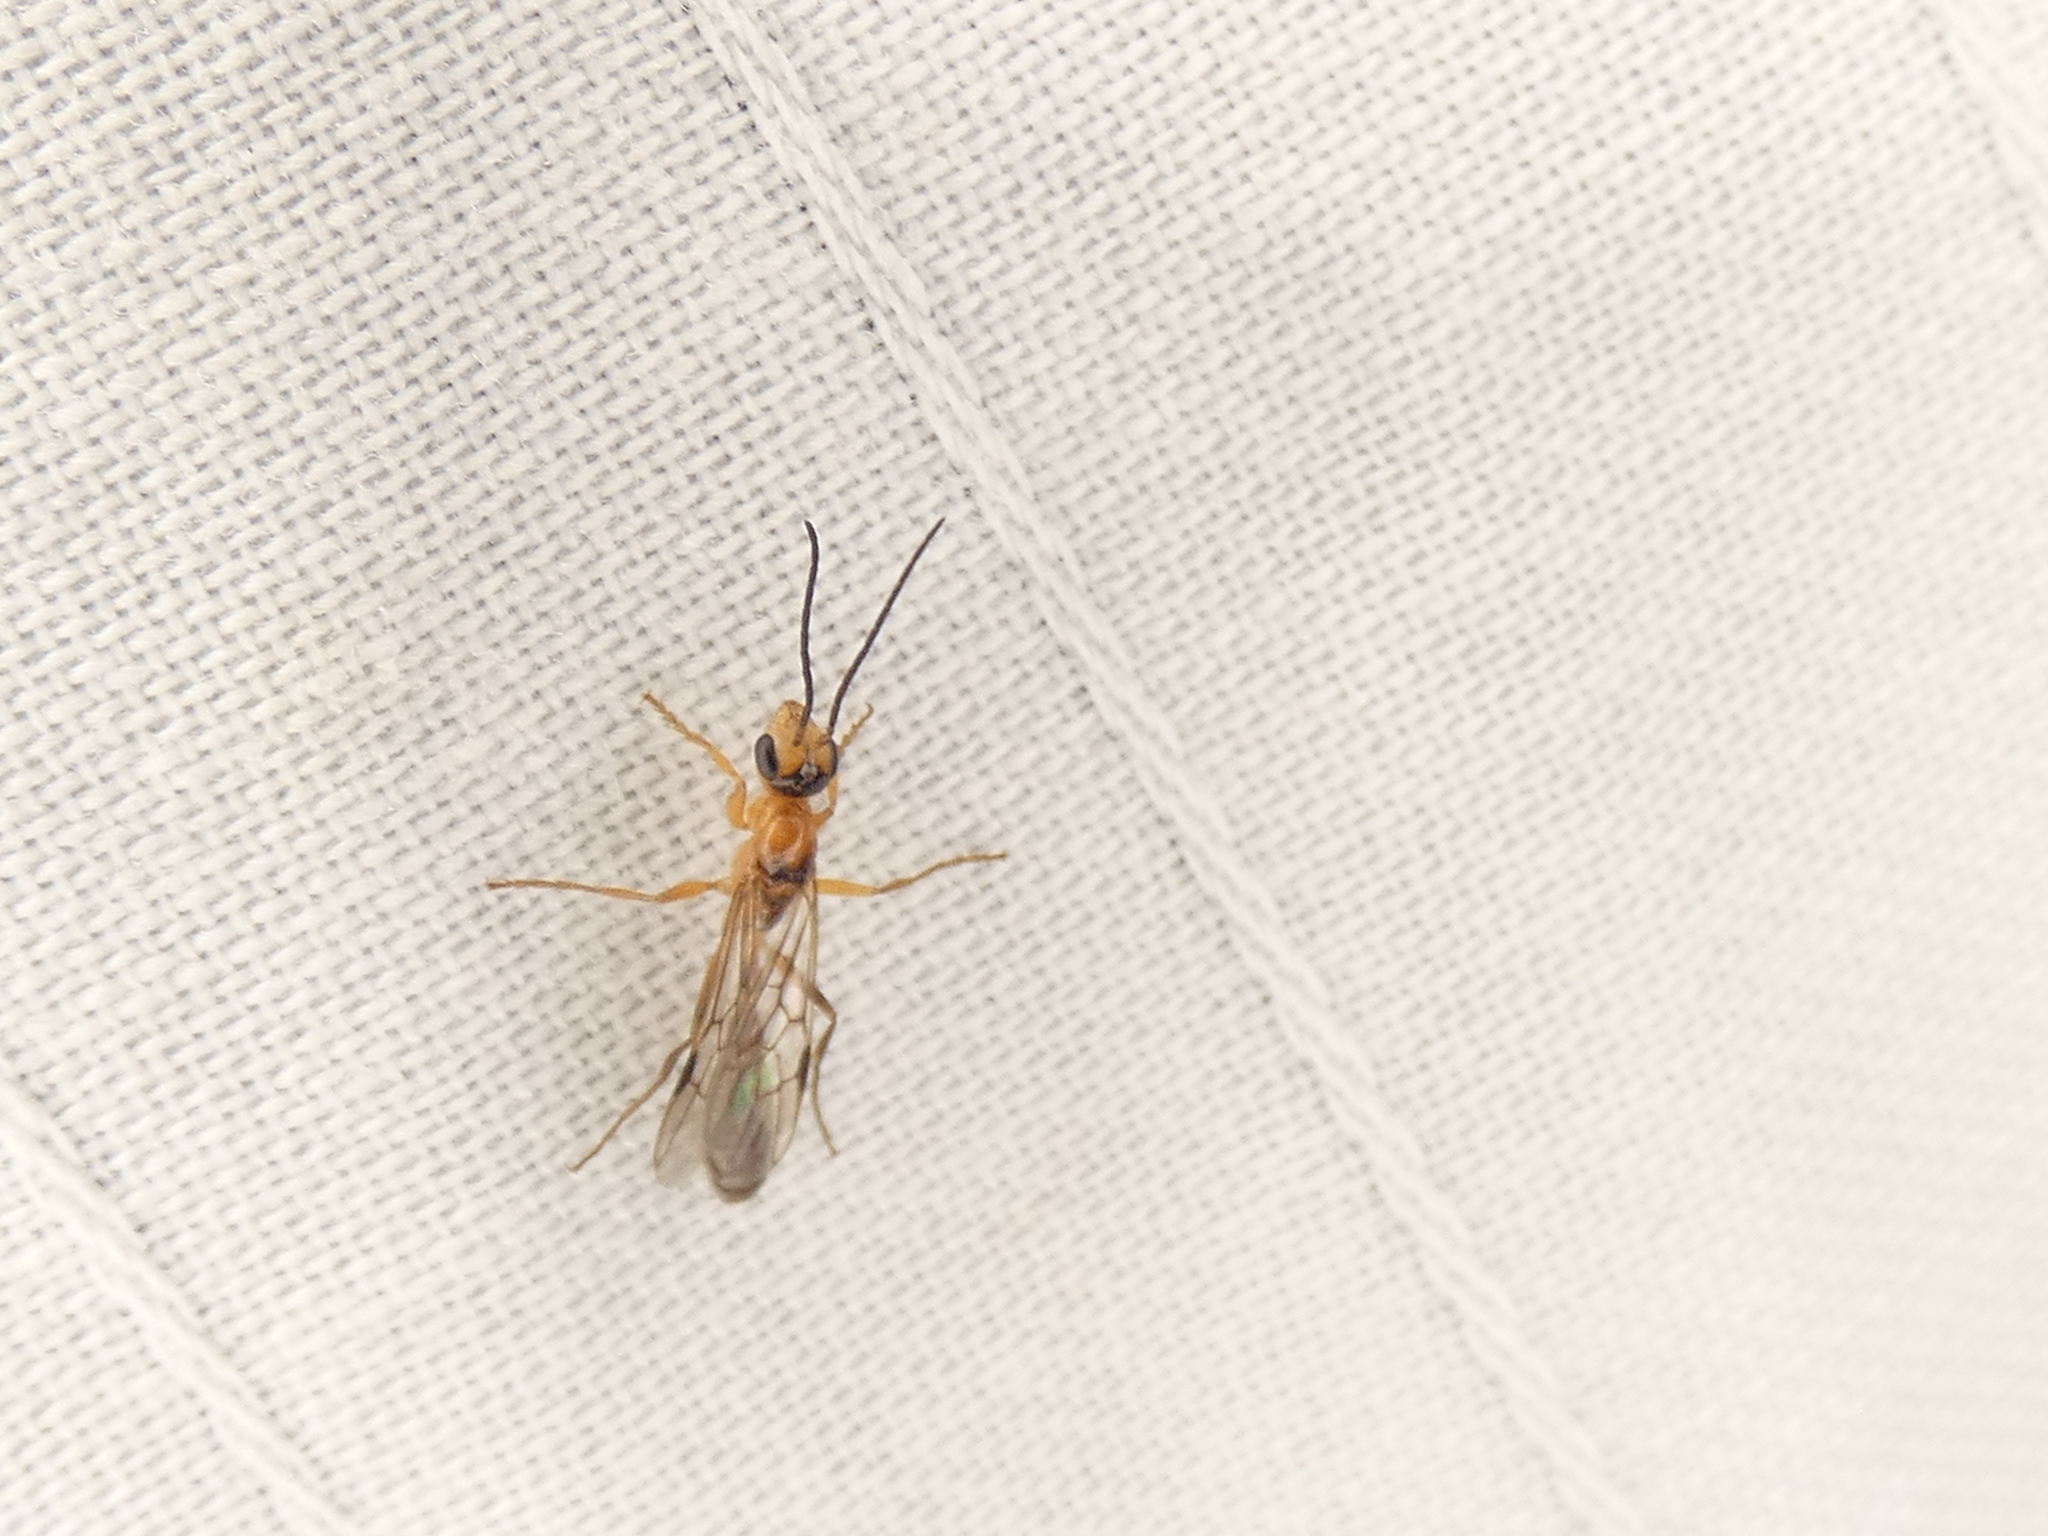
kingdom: Animalia
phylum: Arthropoda
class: Insecta
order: Hymenoptera
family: Formicidae
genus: Pseudomyrmex
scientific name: Pseudomyrmex gracilis
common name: Graceful twig ant
